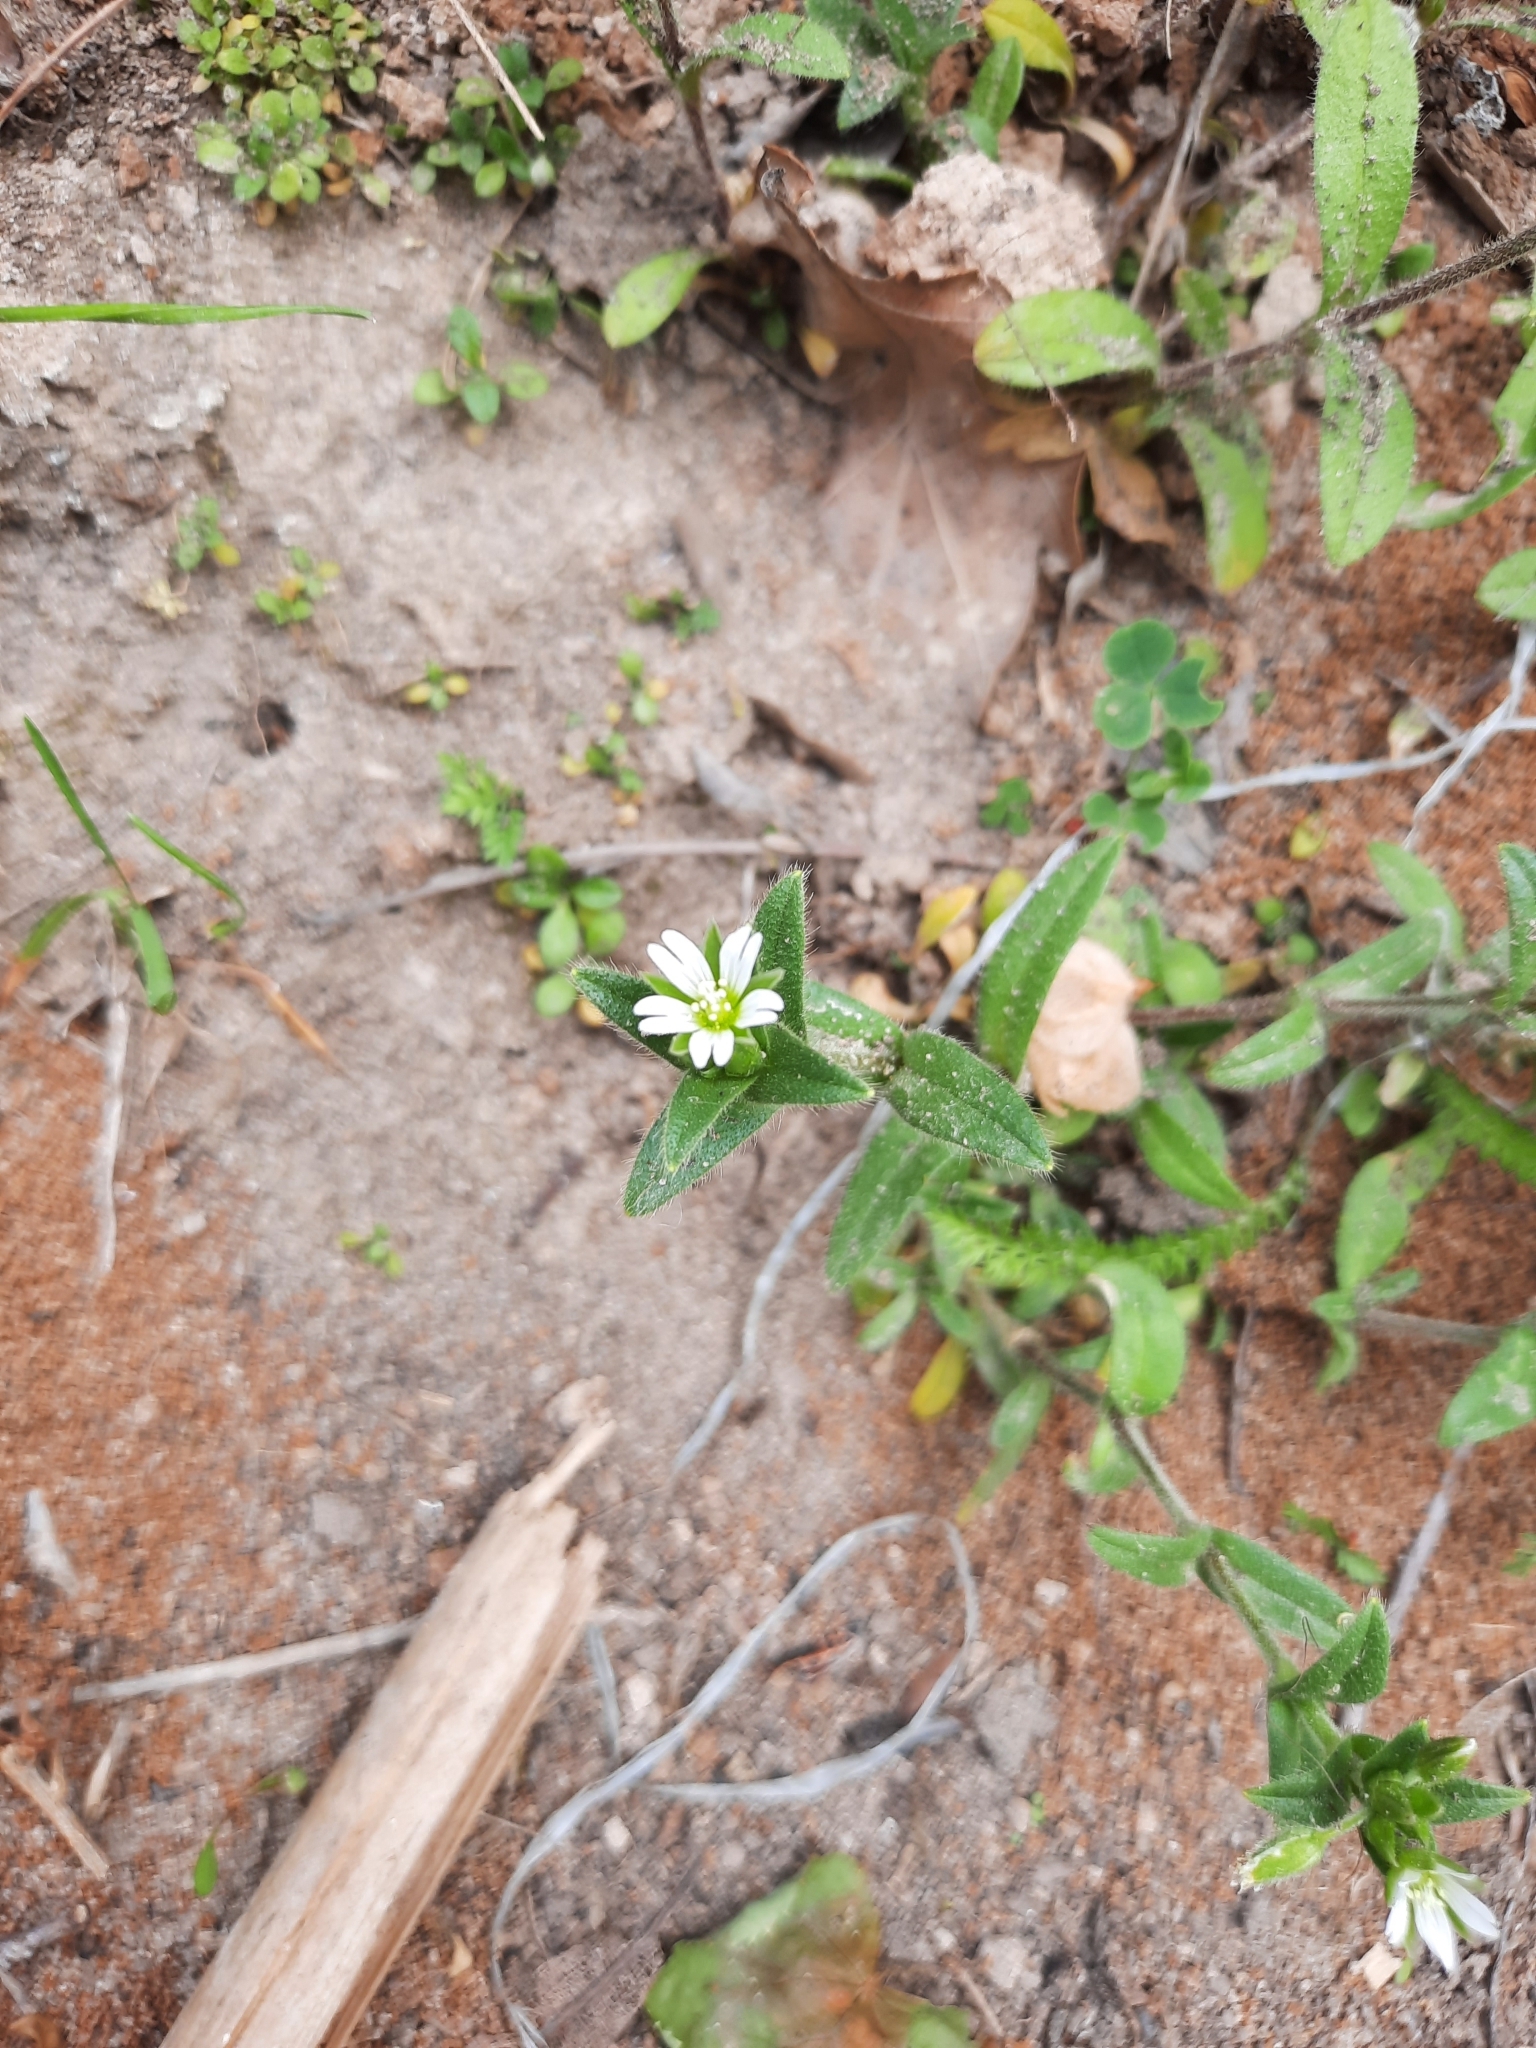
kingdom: Plantae
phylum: Tracheophyta
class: Magnoliopsida
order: Caryophyllales
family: Caryophyllaceae
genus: Cerastium
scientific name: Cerastium holosteoides
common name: Big chickweed
